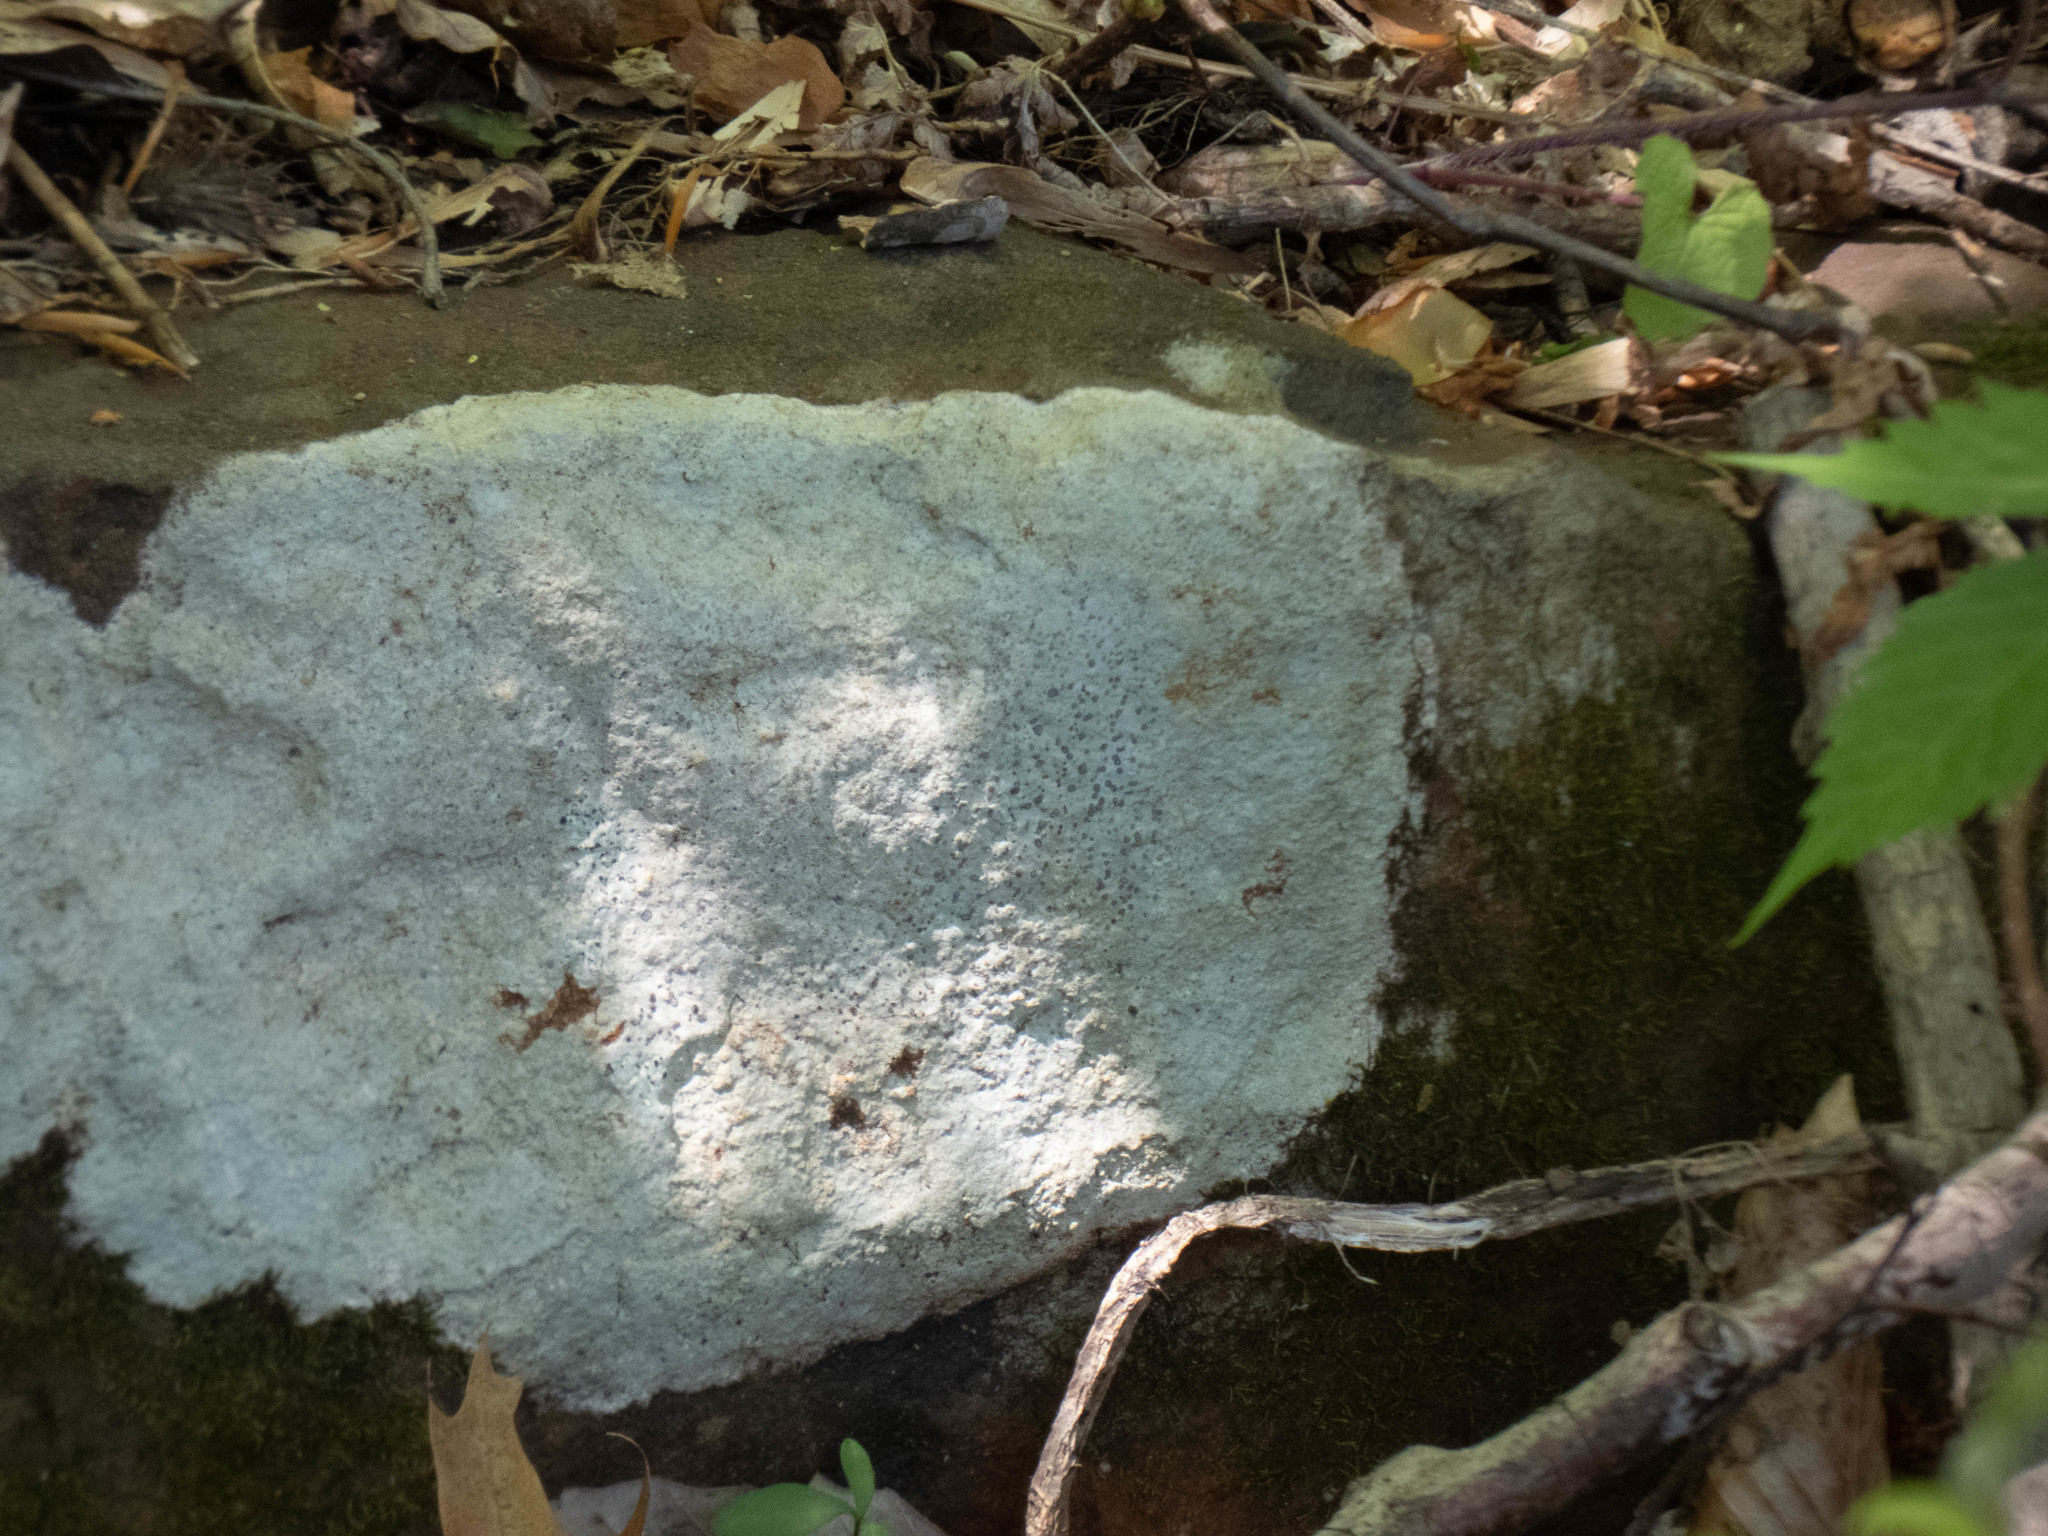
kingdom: Fungi
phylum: Ascomycota
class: Lecanoromycetes
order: Lecideales
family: Lecideaceae
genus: Porpidia
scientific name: Porpidia albocaerulescens
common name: Smokey-eyed boulder lichen
